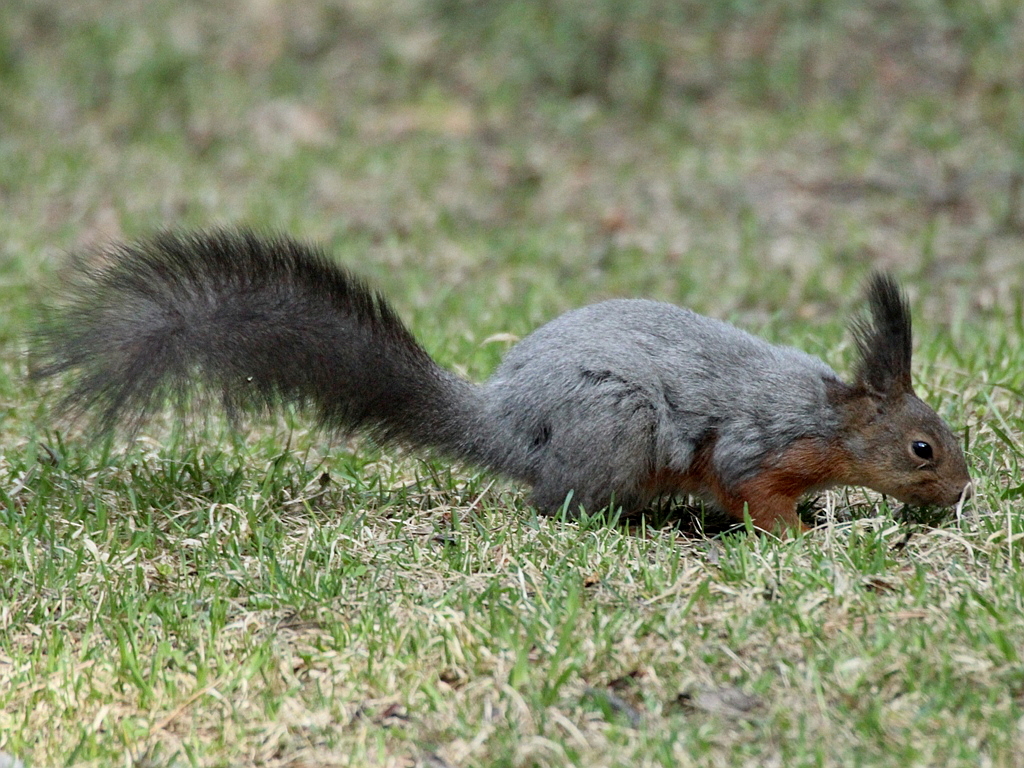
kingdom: Animalia
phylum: Chordata
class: Mammalia
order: Rodentia
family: Sciuridae
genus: Sciurus
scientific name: Sciurus vulgaris
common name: Eurasian red squirrel
